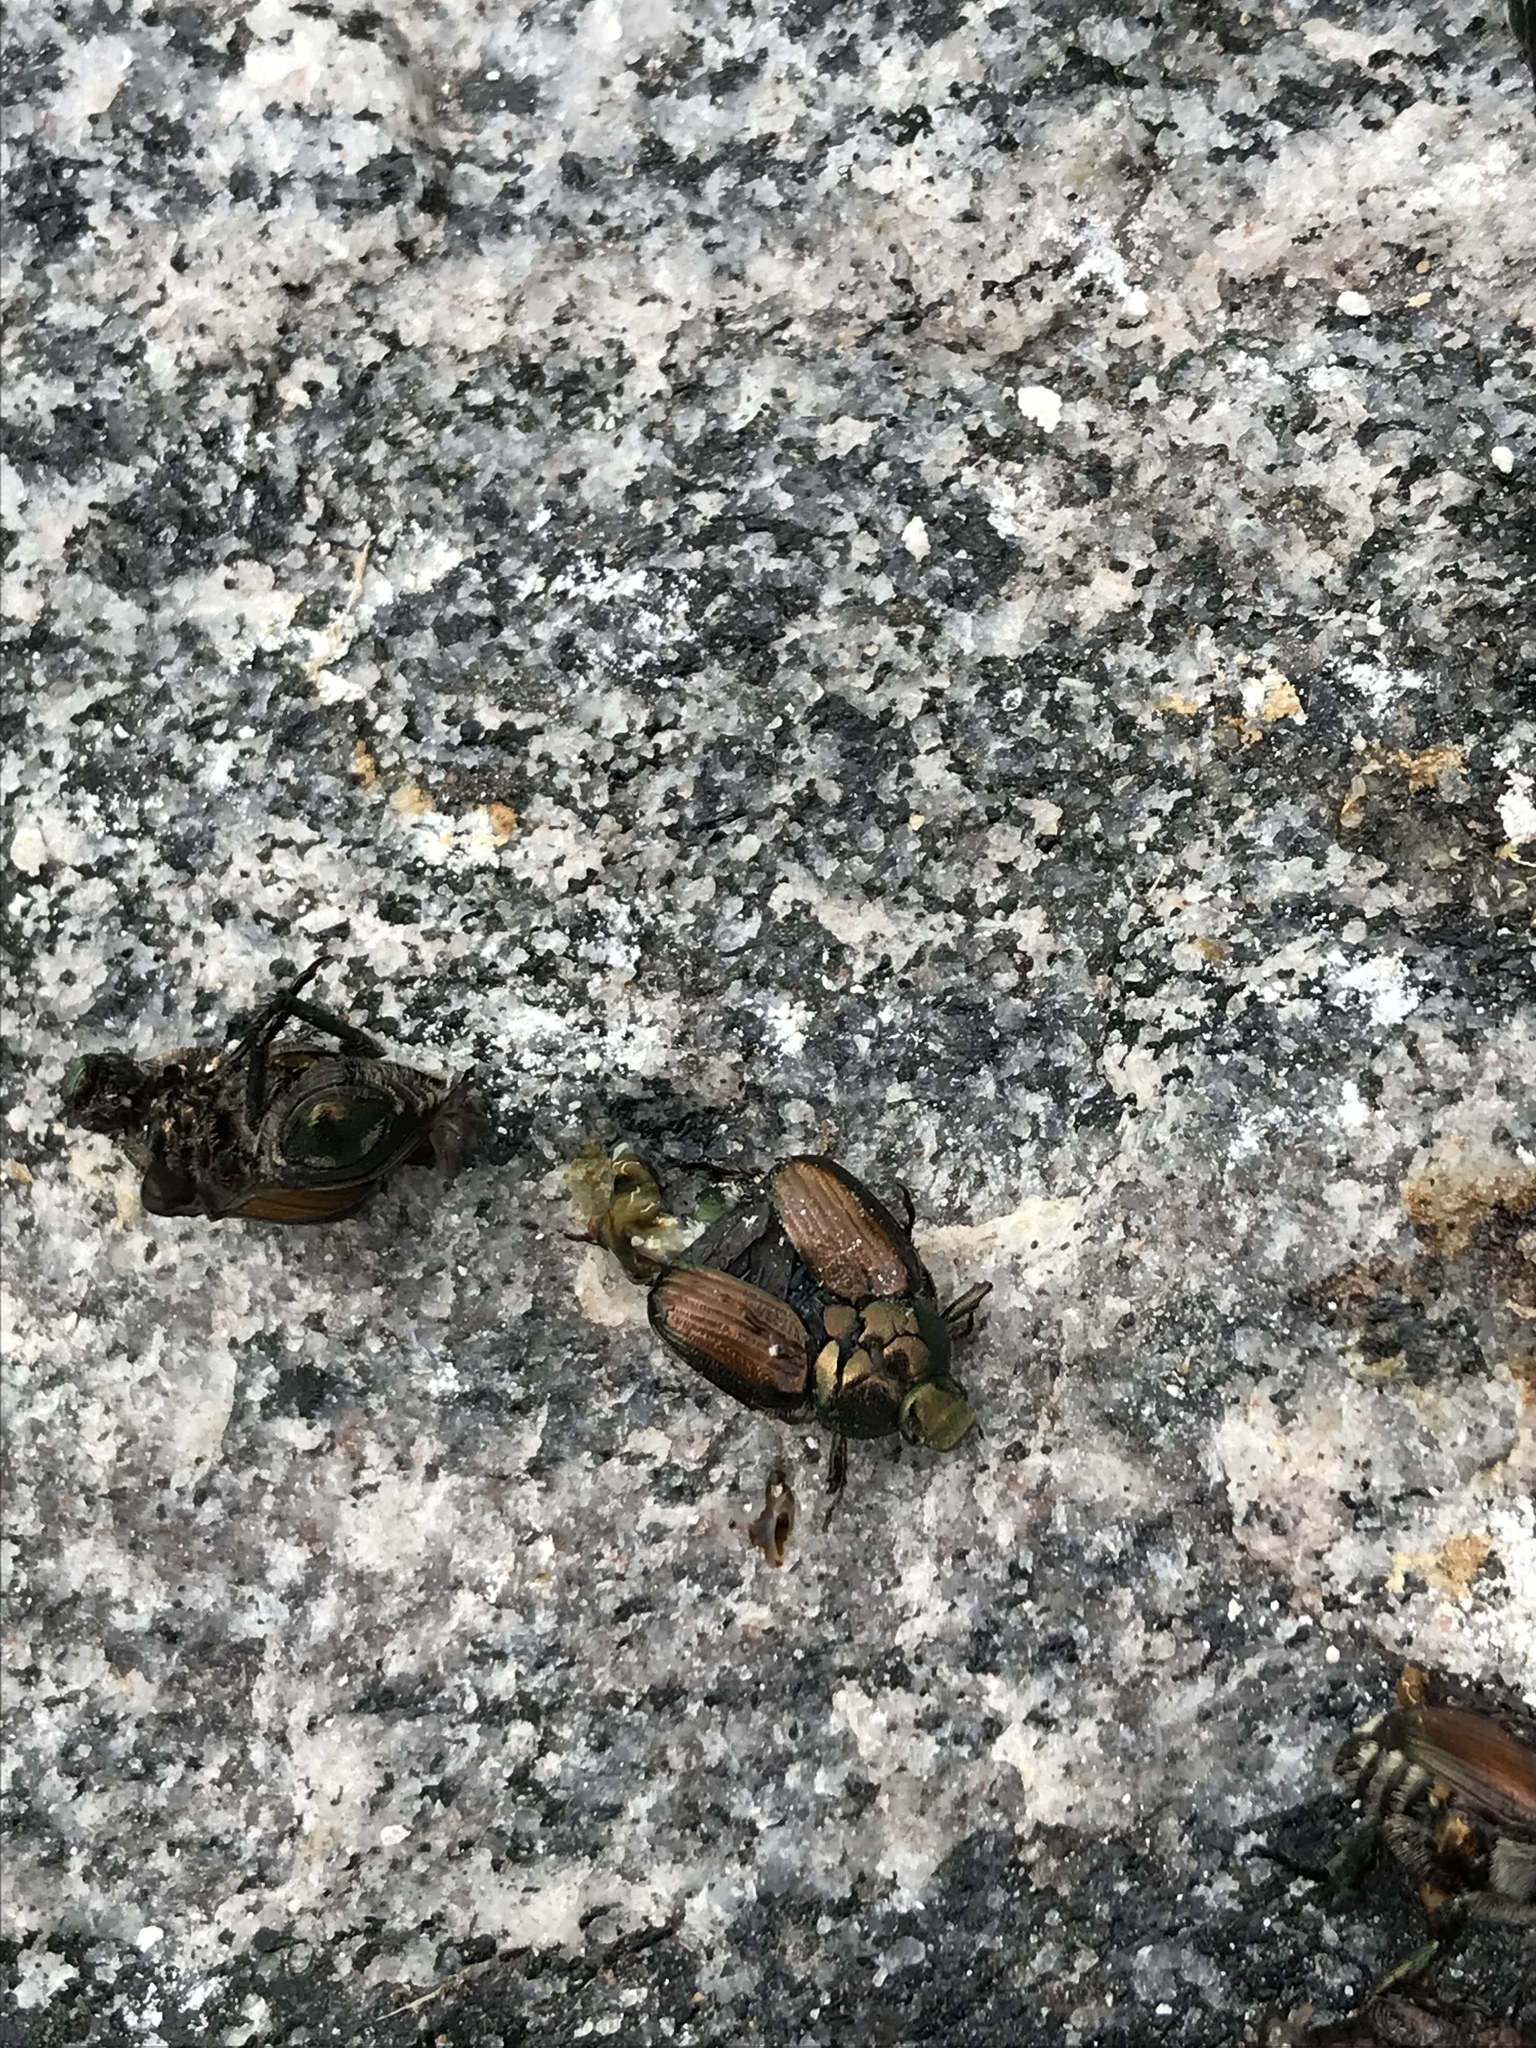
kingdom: Animalia
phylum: Arthropoda
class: Insecta
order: Coleoptera
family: Scarabaeidae
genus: Popillia
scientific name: Popillia japonica
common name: Japanese beetle
